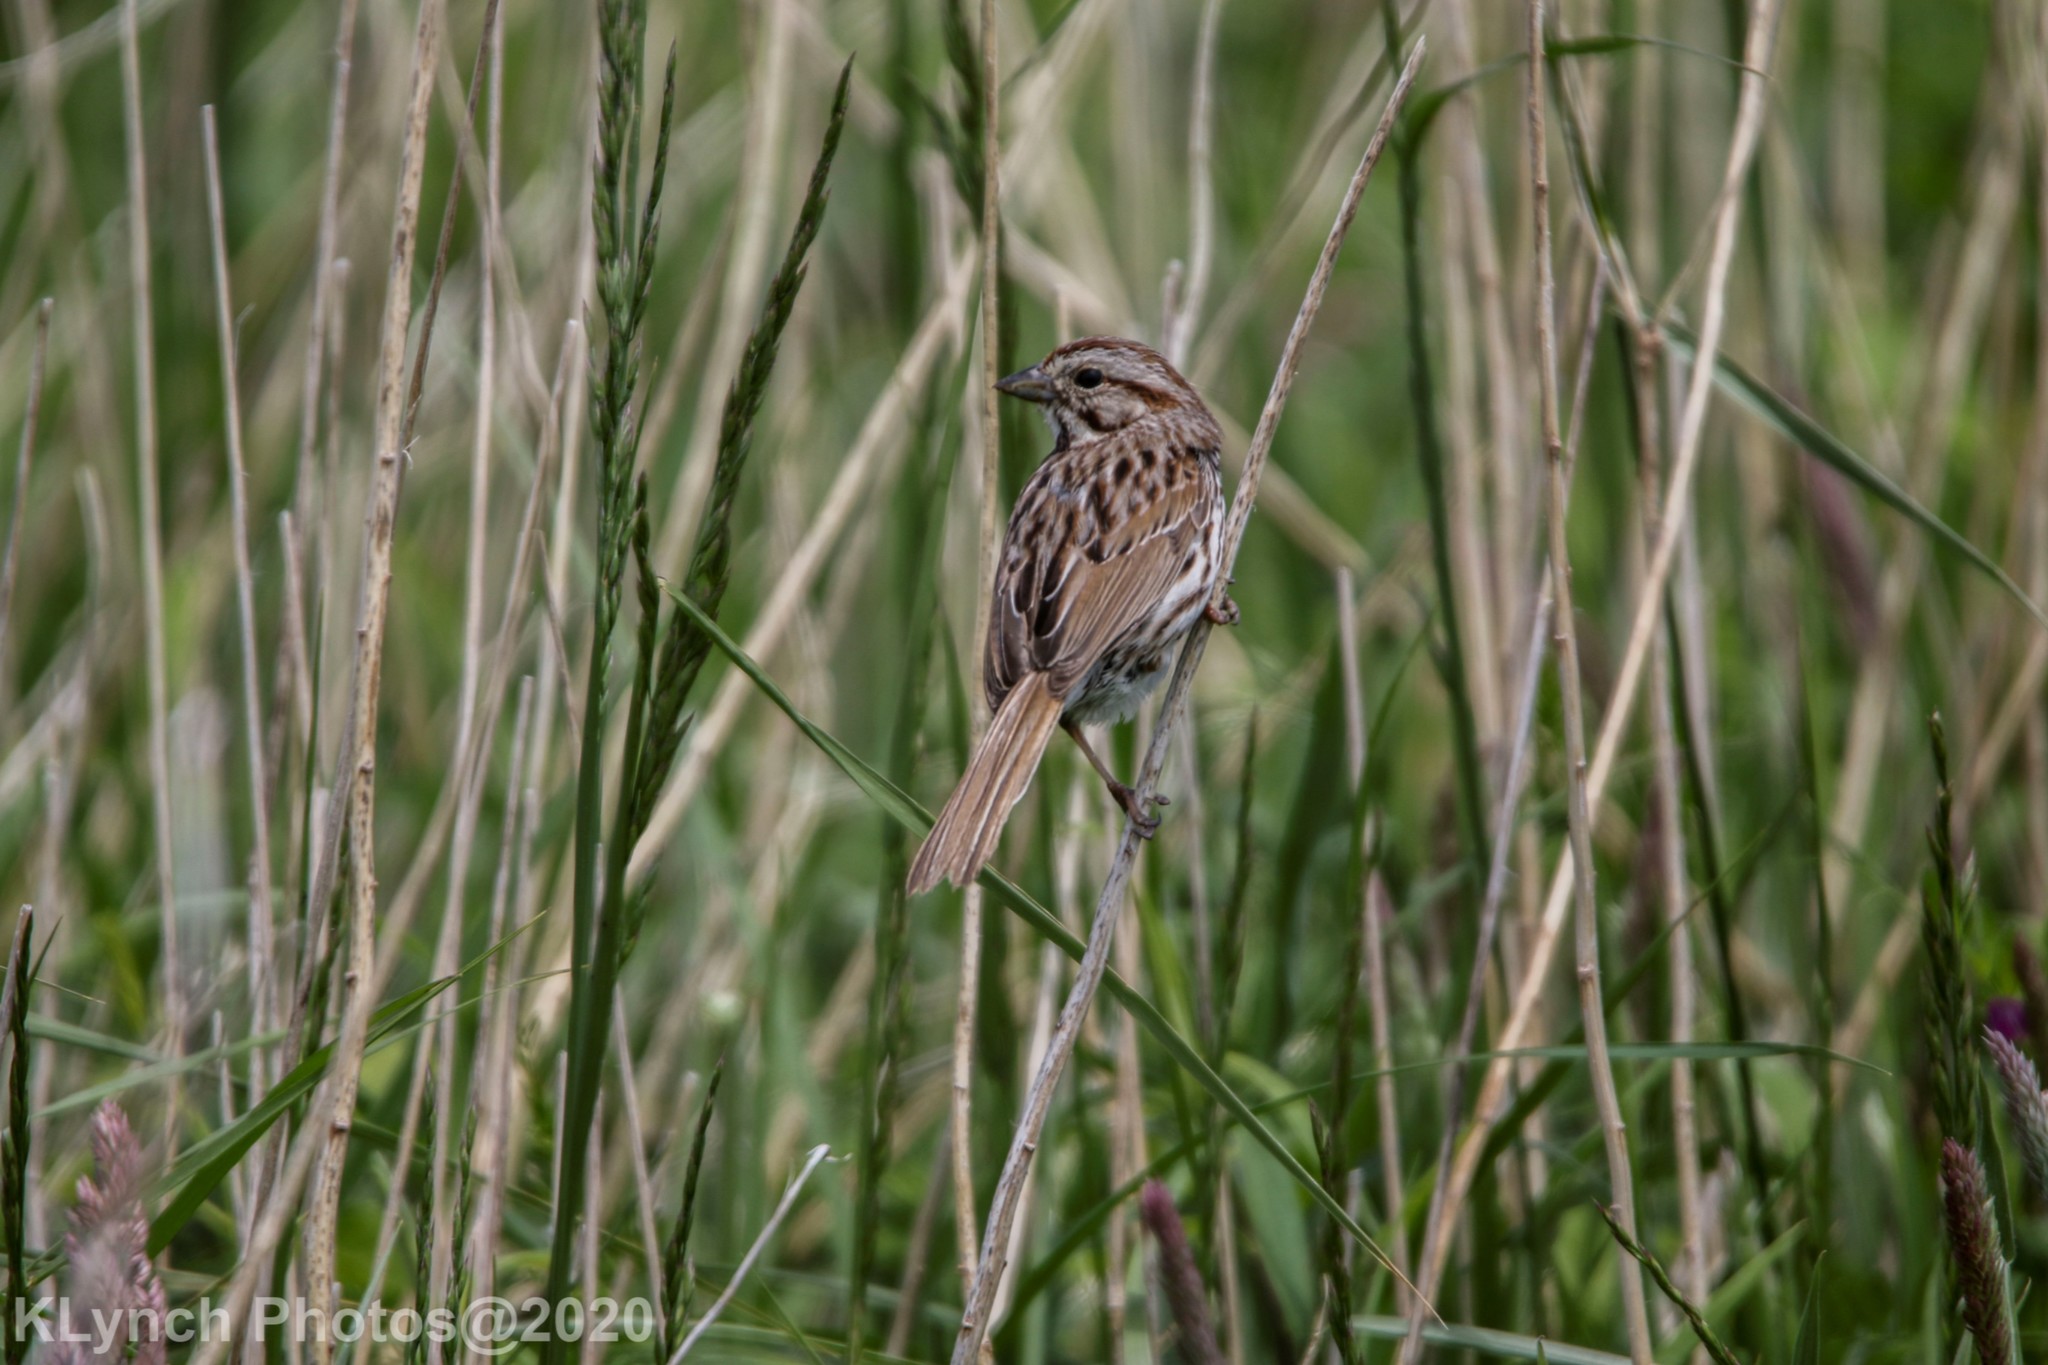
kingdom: Animalia
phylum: Chordata
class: Aves
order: Passeriformes
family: Passerellidae
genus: Melospiza
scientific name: Melospiza melodia
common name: Song sparrow
